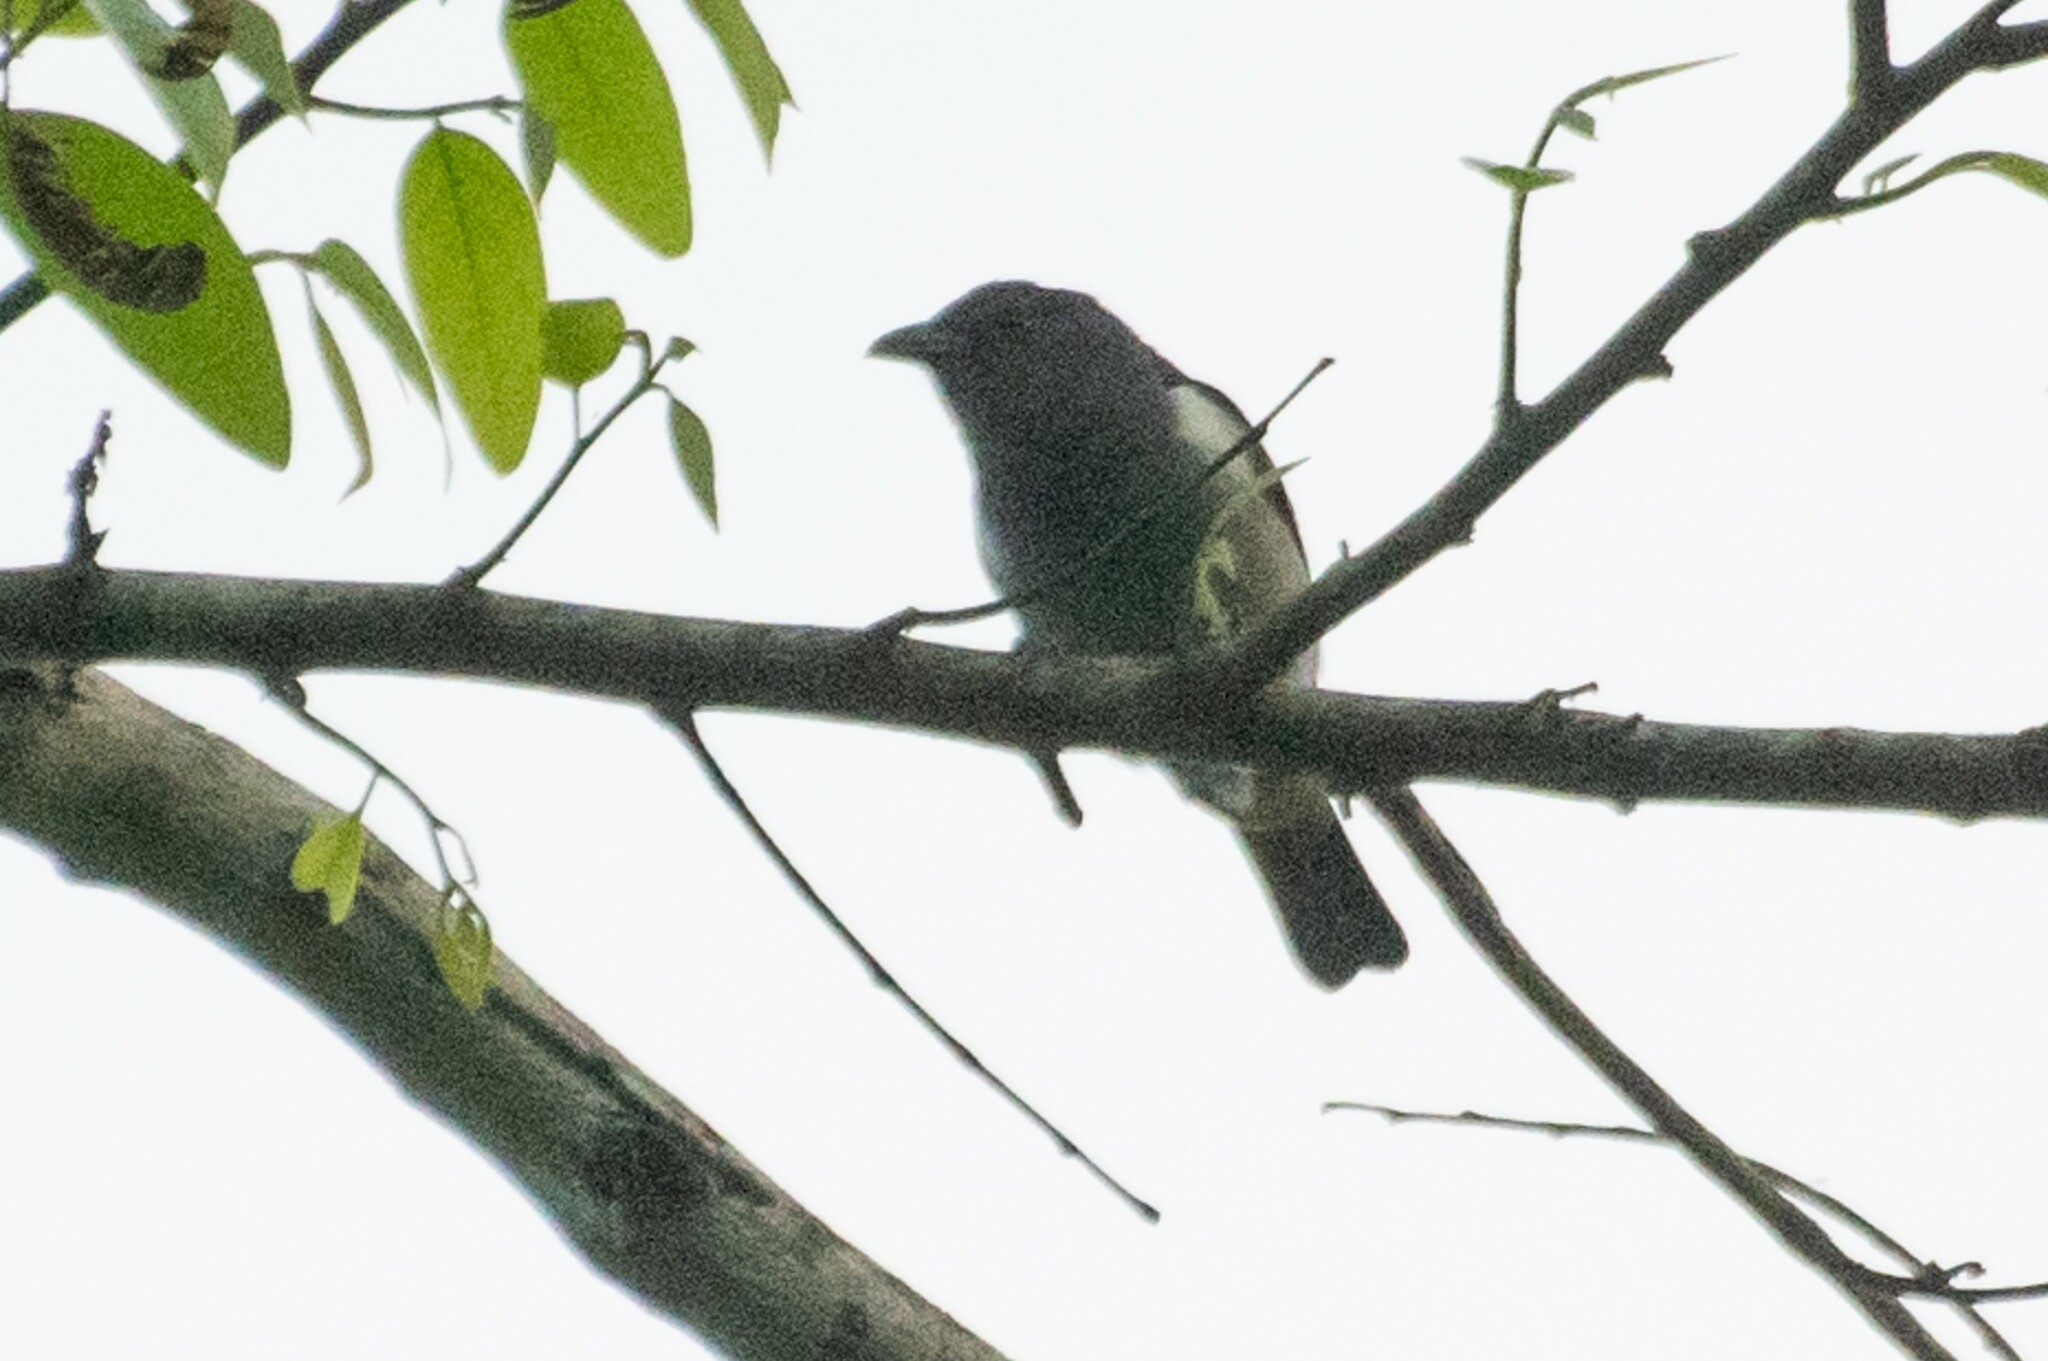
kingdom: Animalia
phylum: Chordata
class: Aves
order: Passeriformes
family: Thraupidae
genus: Heterospingus
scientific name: Heterospingus rubrifrons
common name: Sulphur-rumped tanager
